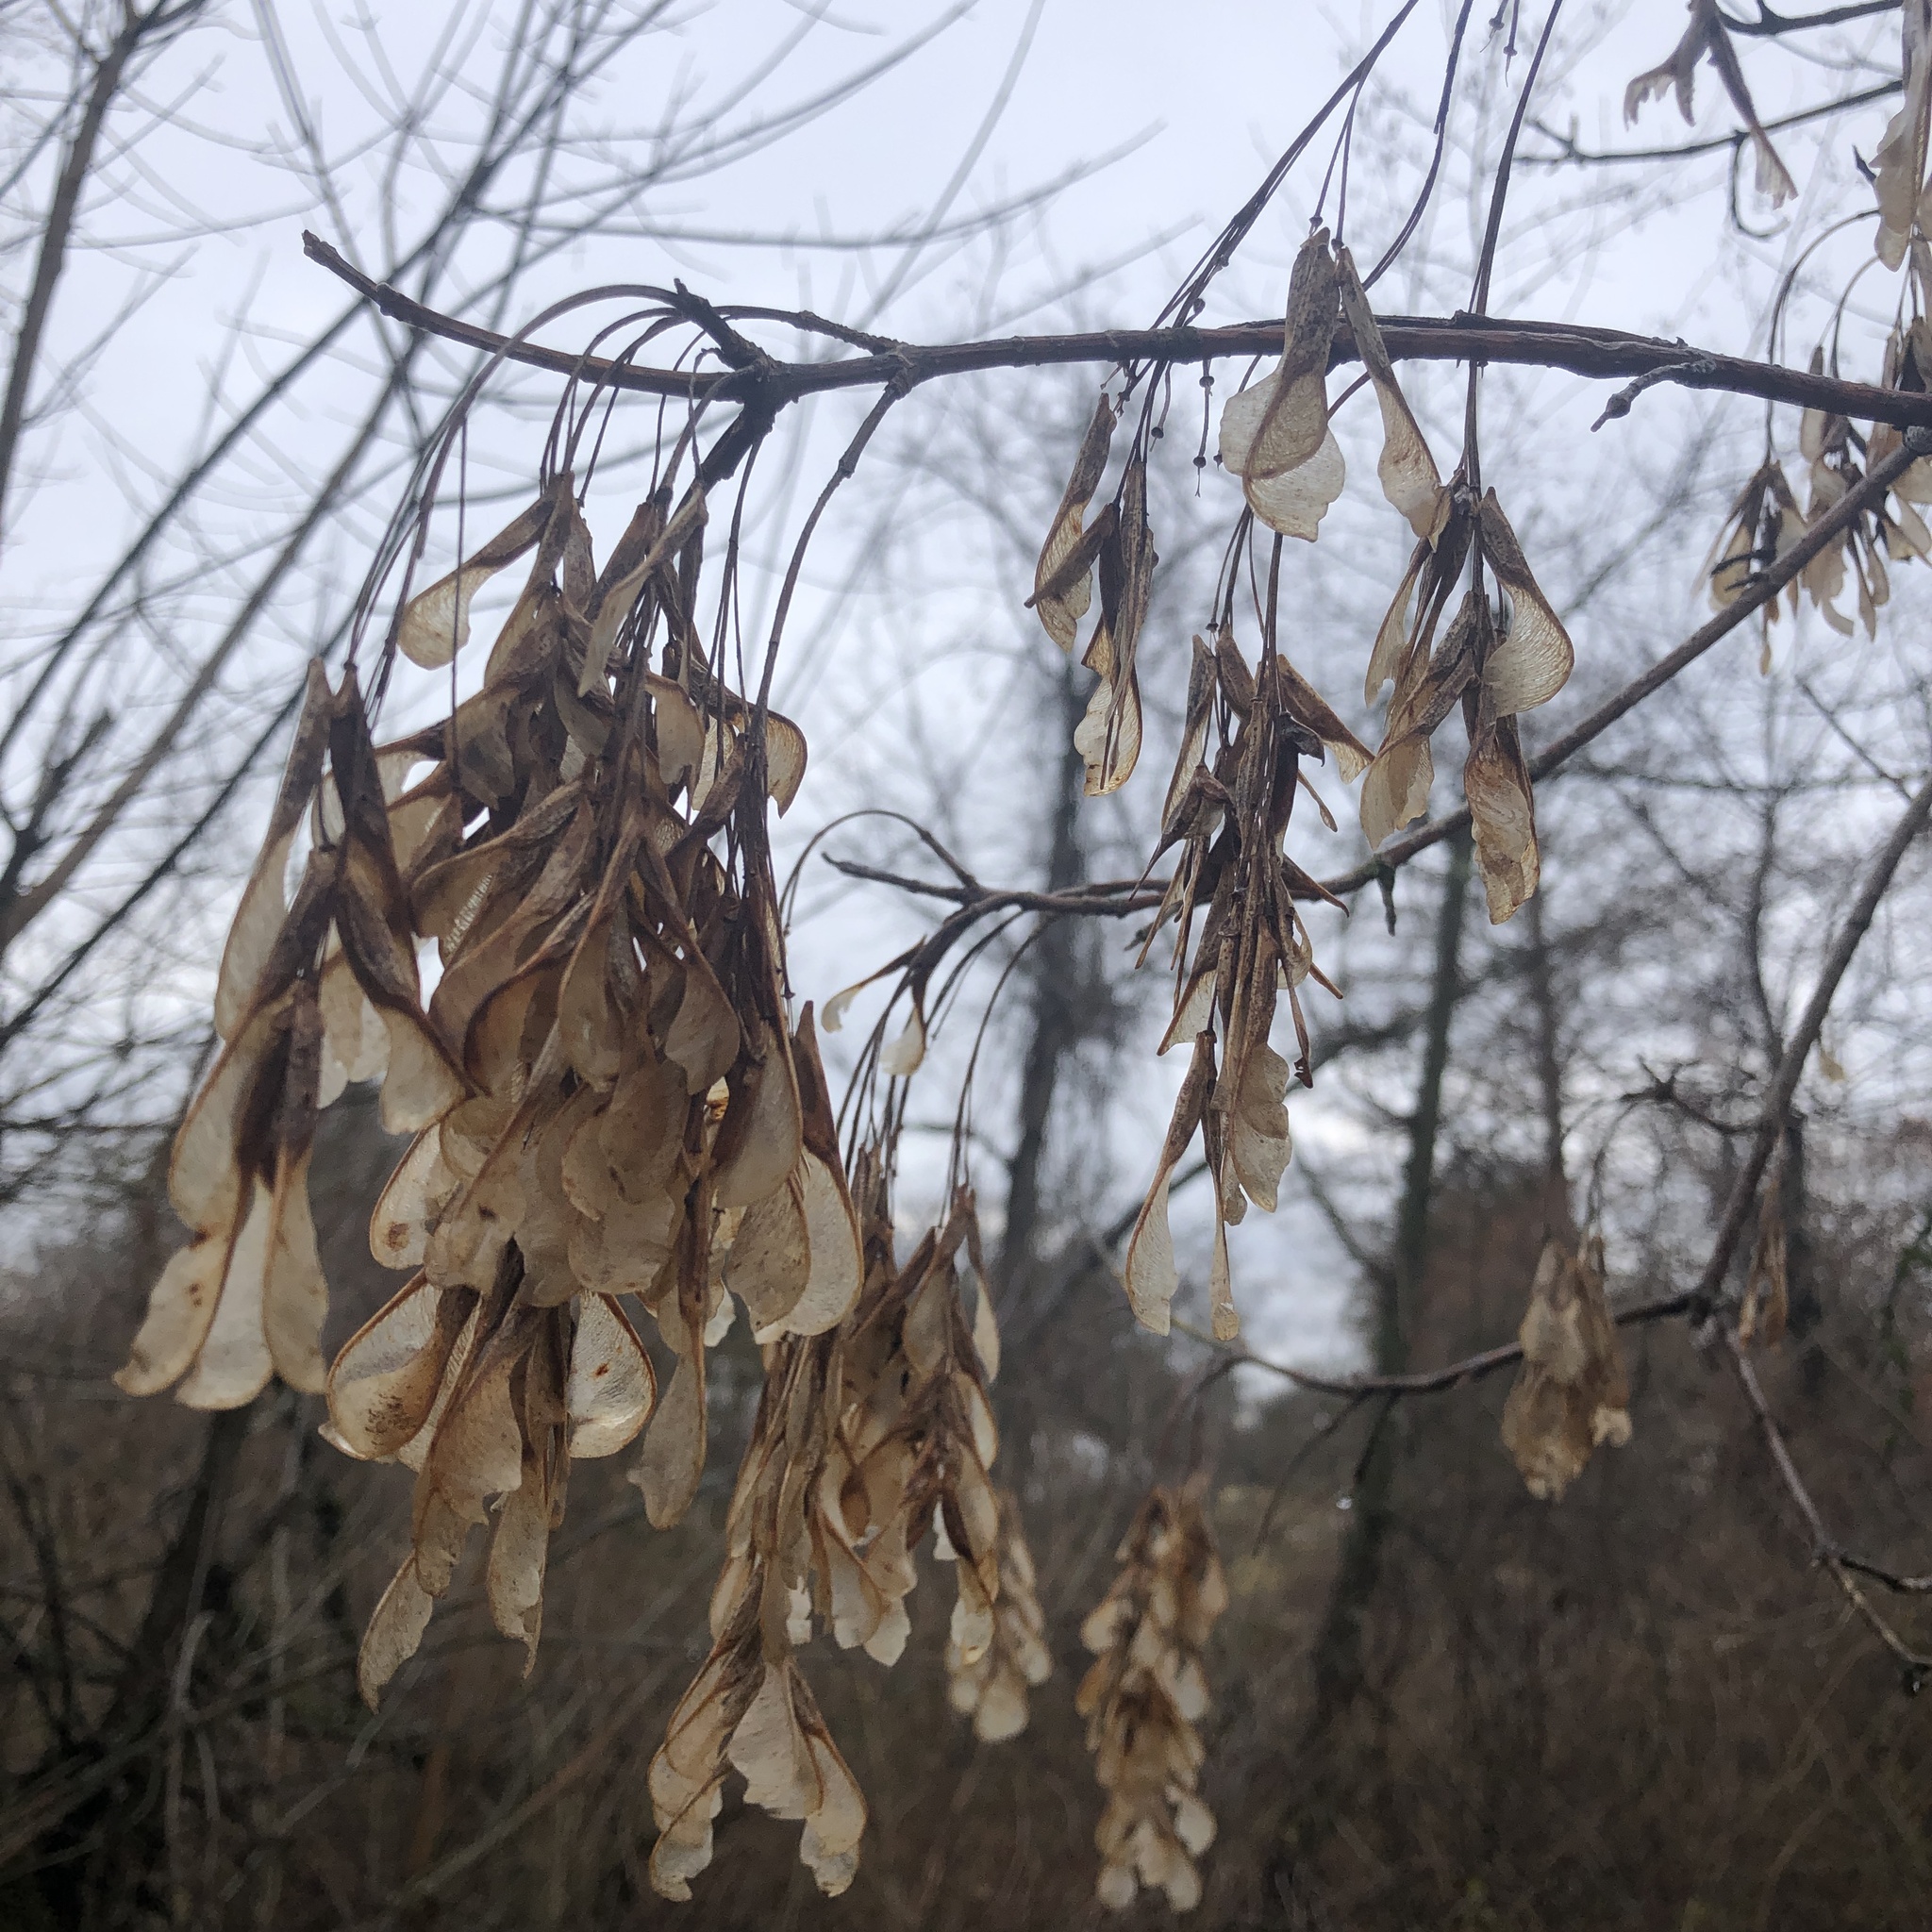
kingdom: Plantae
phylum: Tracheophyta
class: Magnoliopsida
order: Sapindales
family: Sapindaceae
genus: Acer
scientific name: Acer negundo
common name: Ashleaf maple
